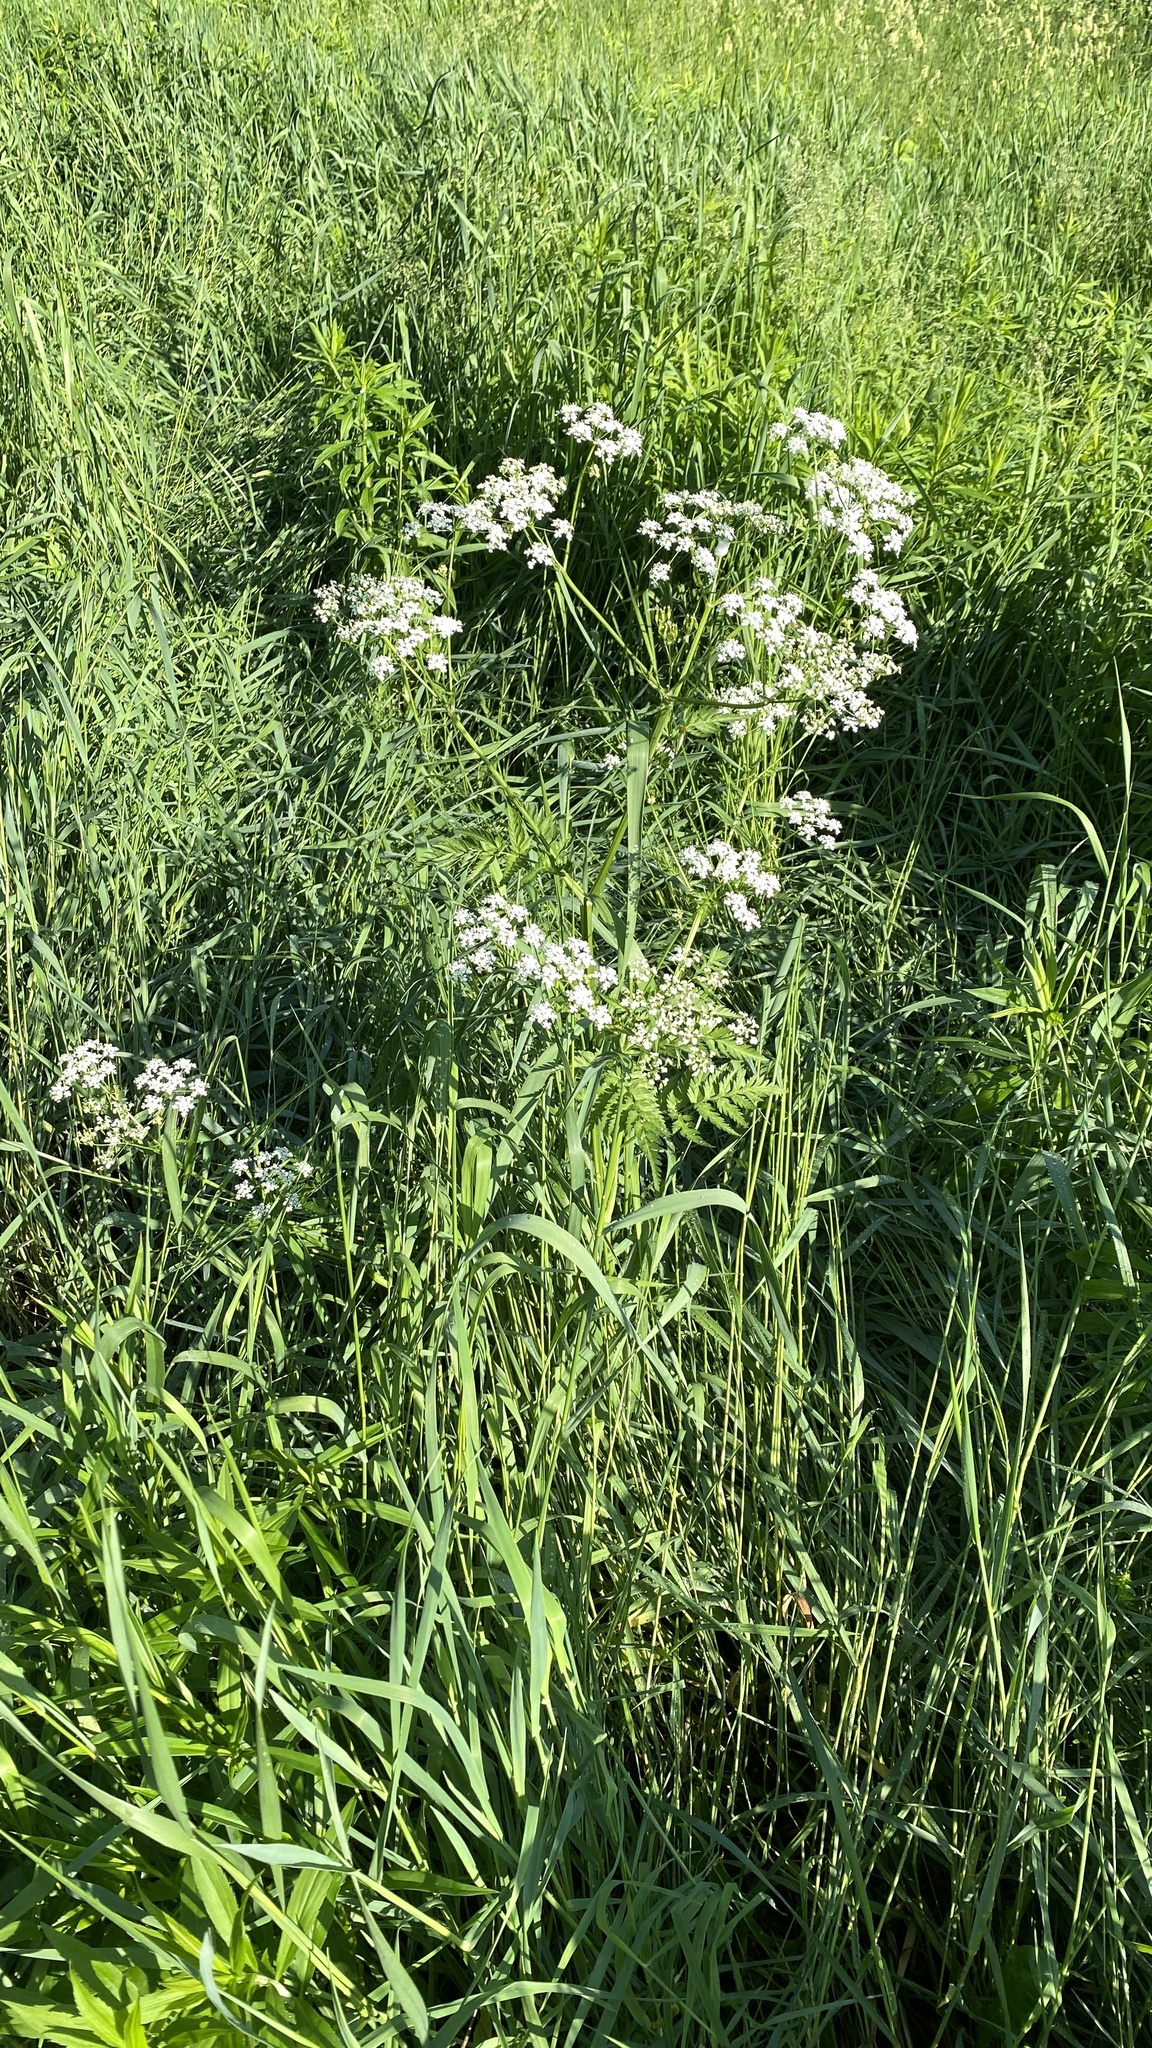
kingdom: Plantae
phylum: Tracheophyta
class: Magnoliopsida
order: Apiales
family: Apiaceae
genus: Anthriscus
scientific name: Anthriscus sylvestris
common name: Cow parsley
